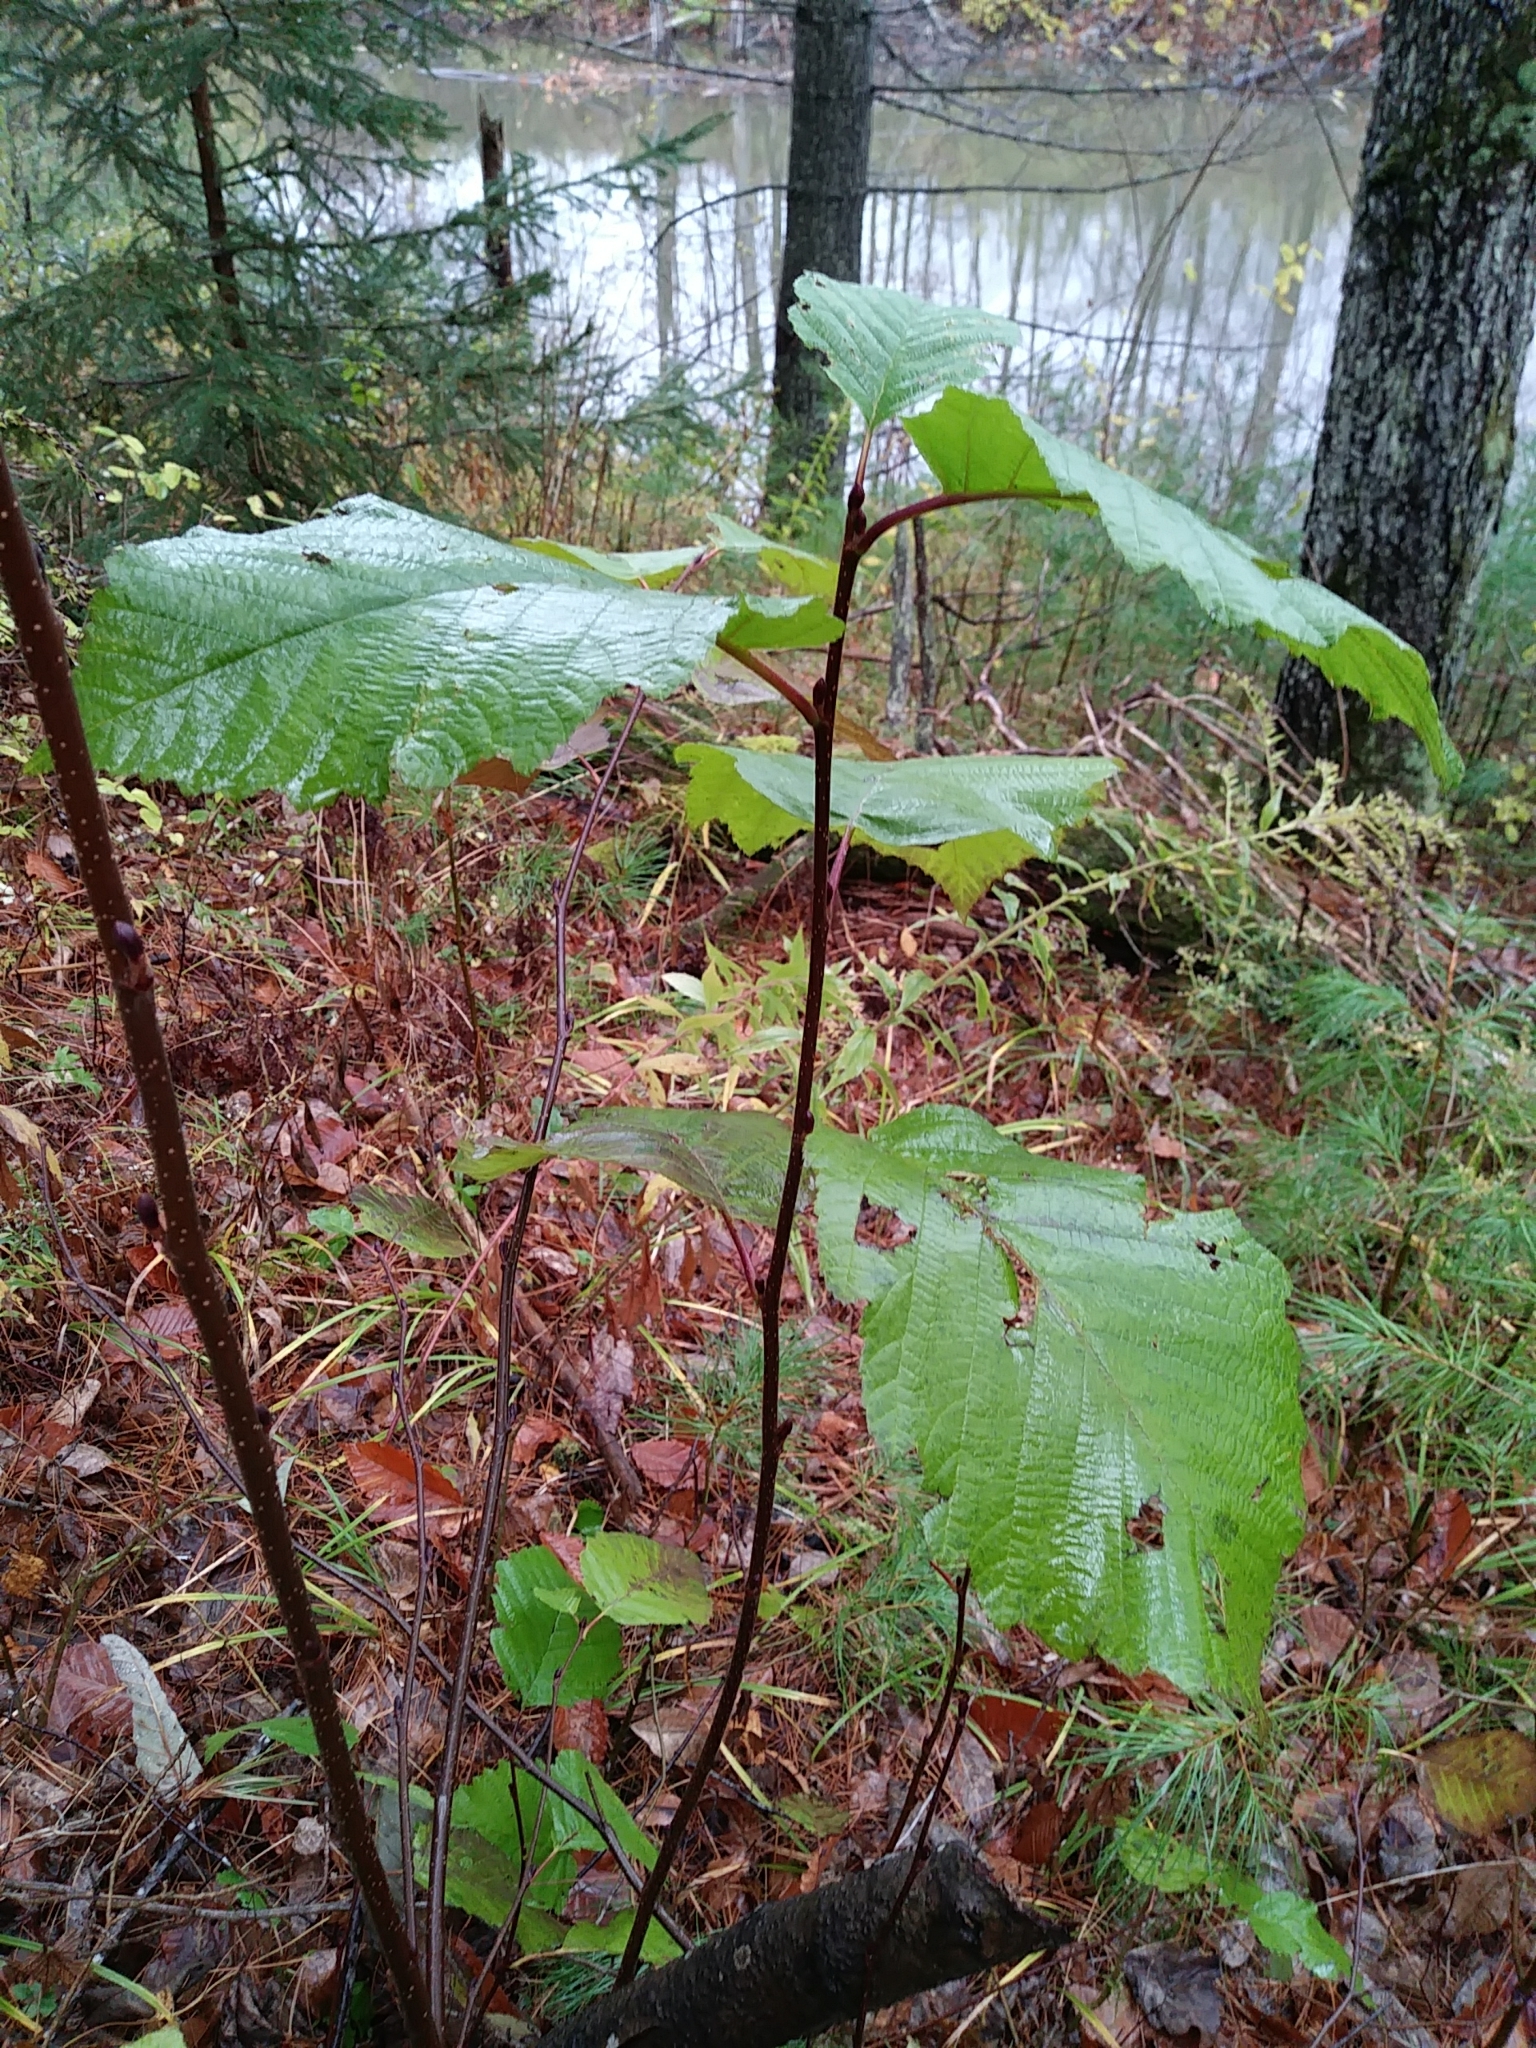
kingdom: Plantae
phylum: Tracheophyta
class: Magnoliopsida
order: Fagales
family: Betulaceae
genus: Alnus
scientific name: Alnus incana
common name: Grey alder
